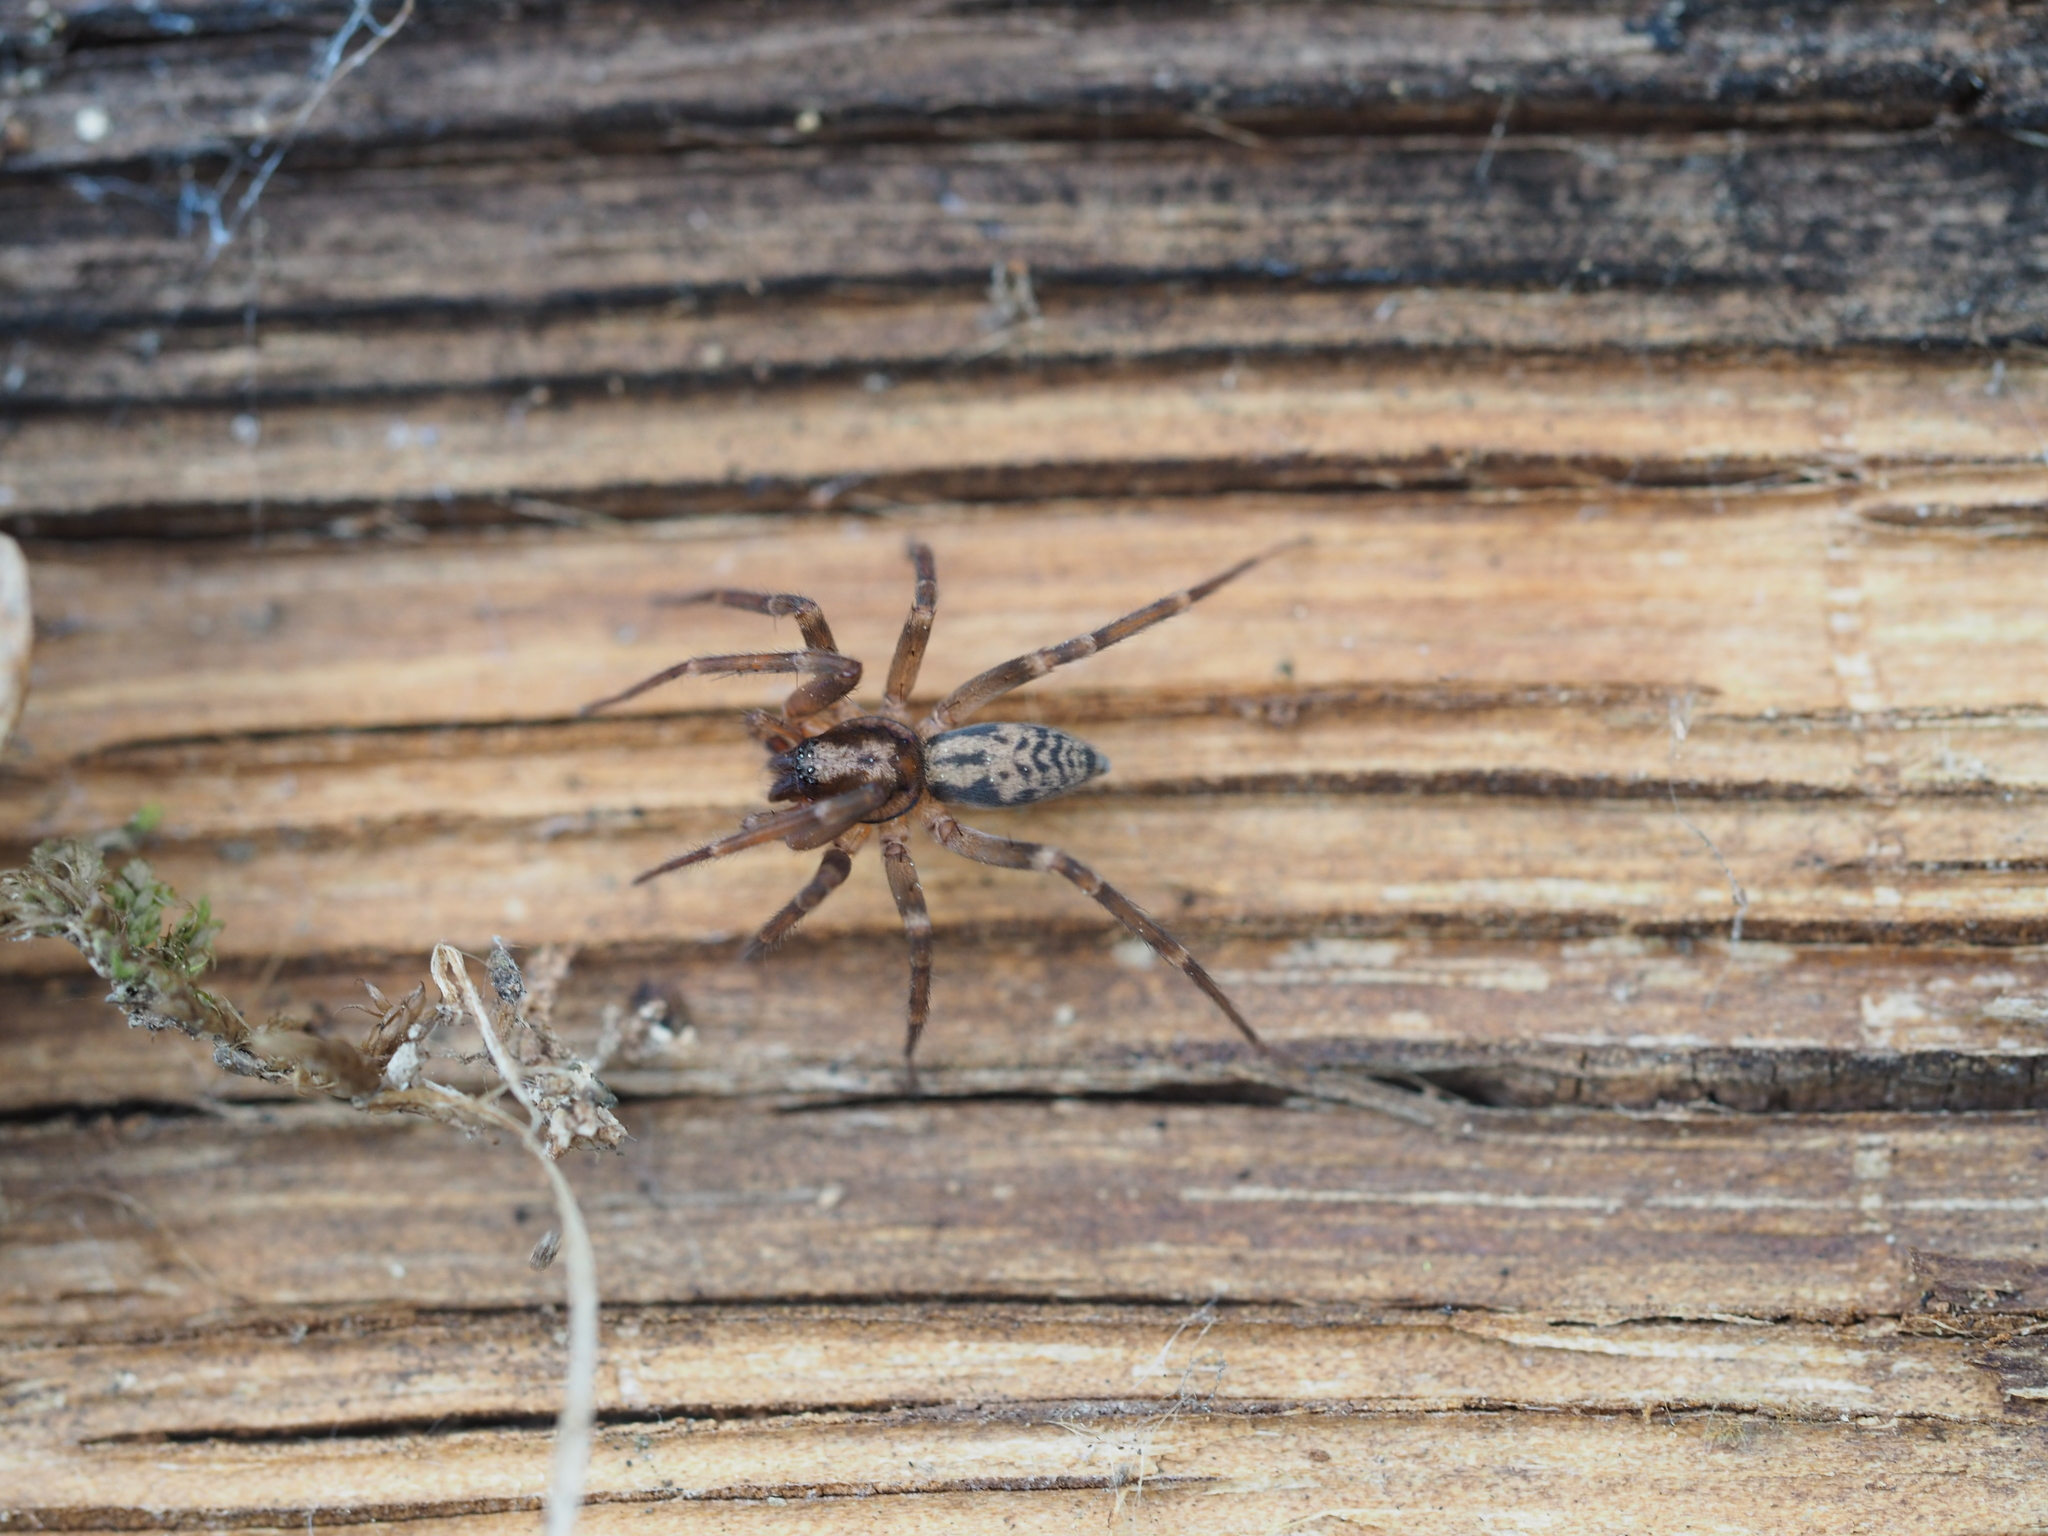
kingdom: Animalia
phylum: Arthropoda
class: Arachnida
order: Araneae
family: Liocranidae
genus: Liocranum
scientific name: Liocranum rupicola
